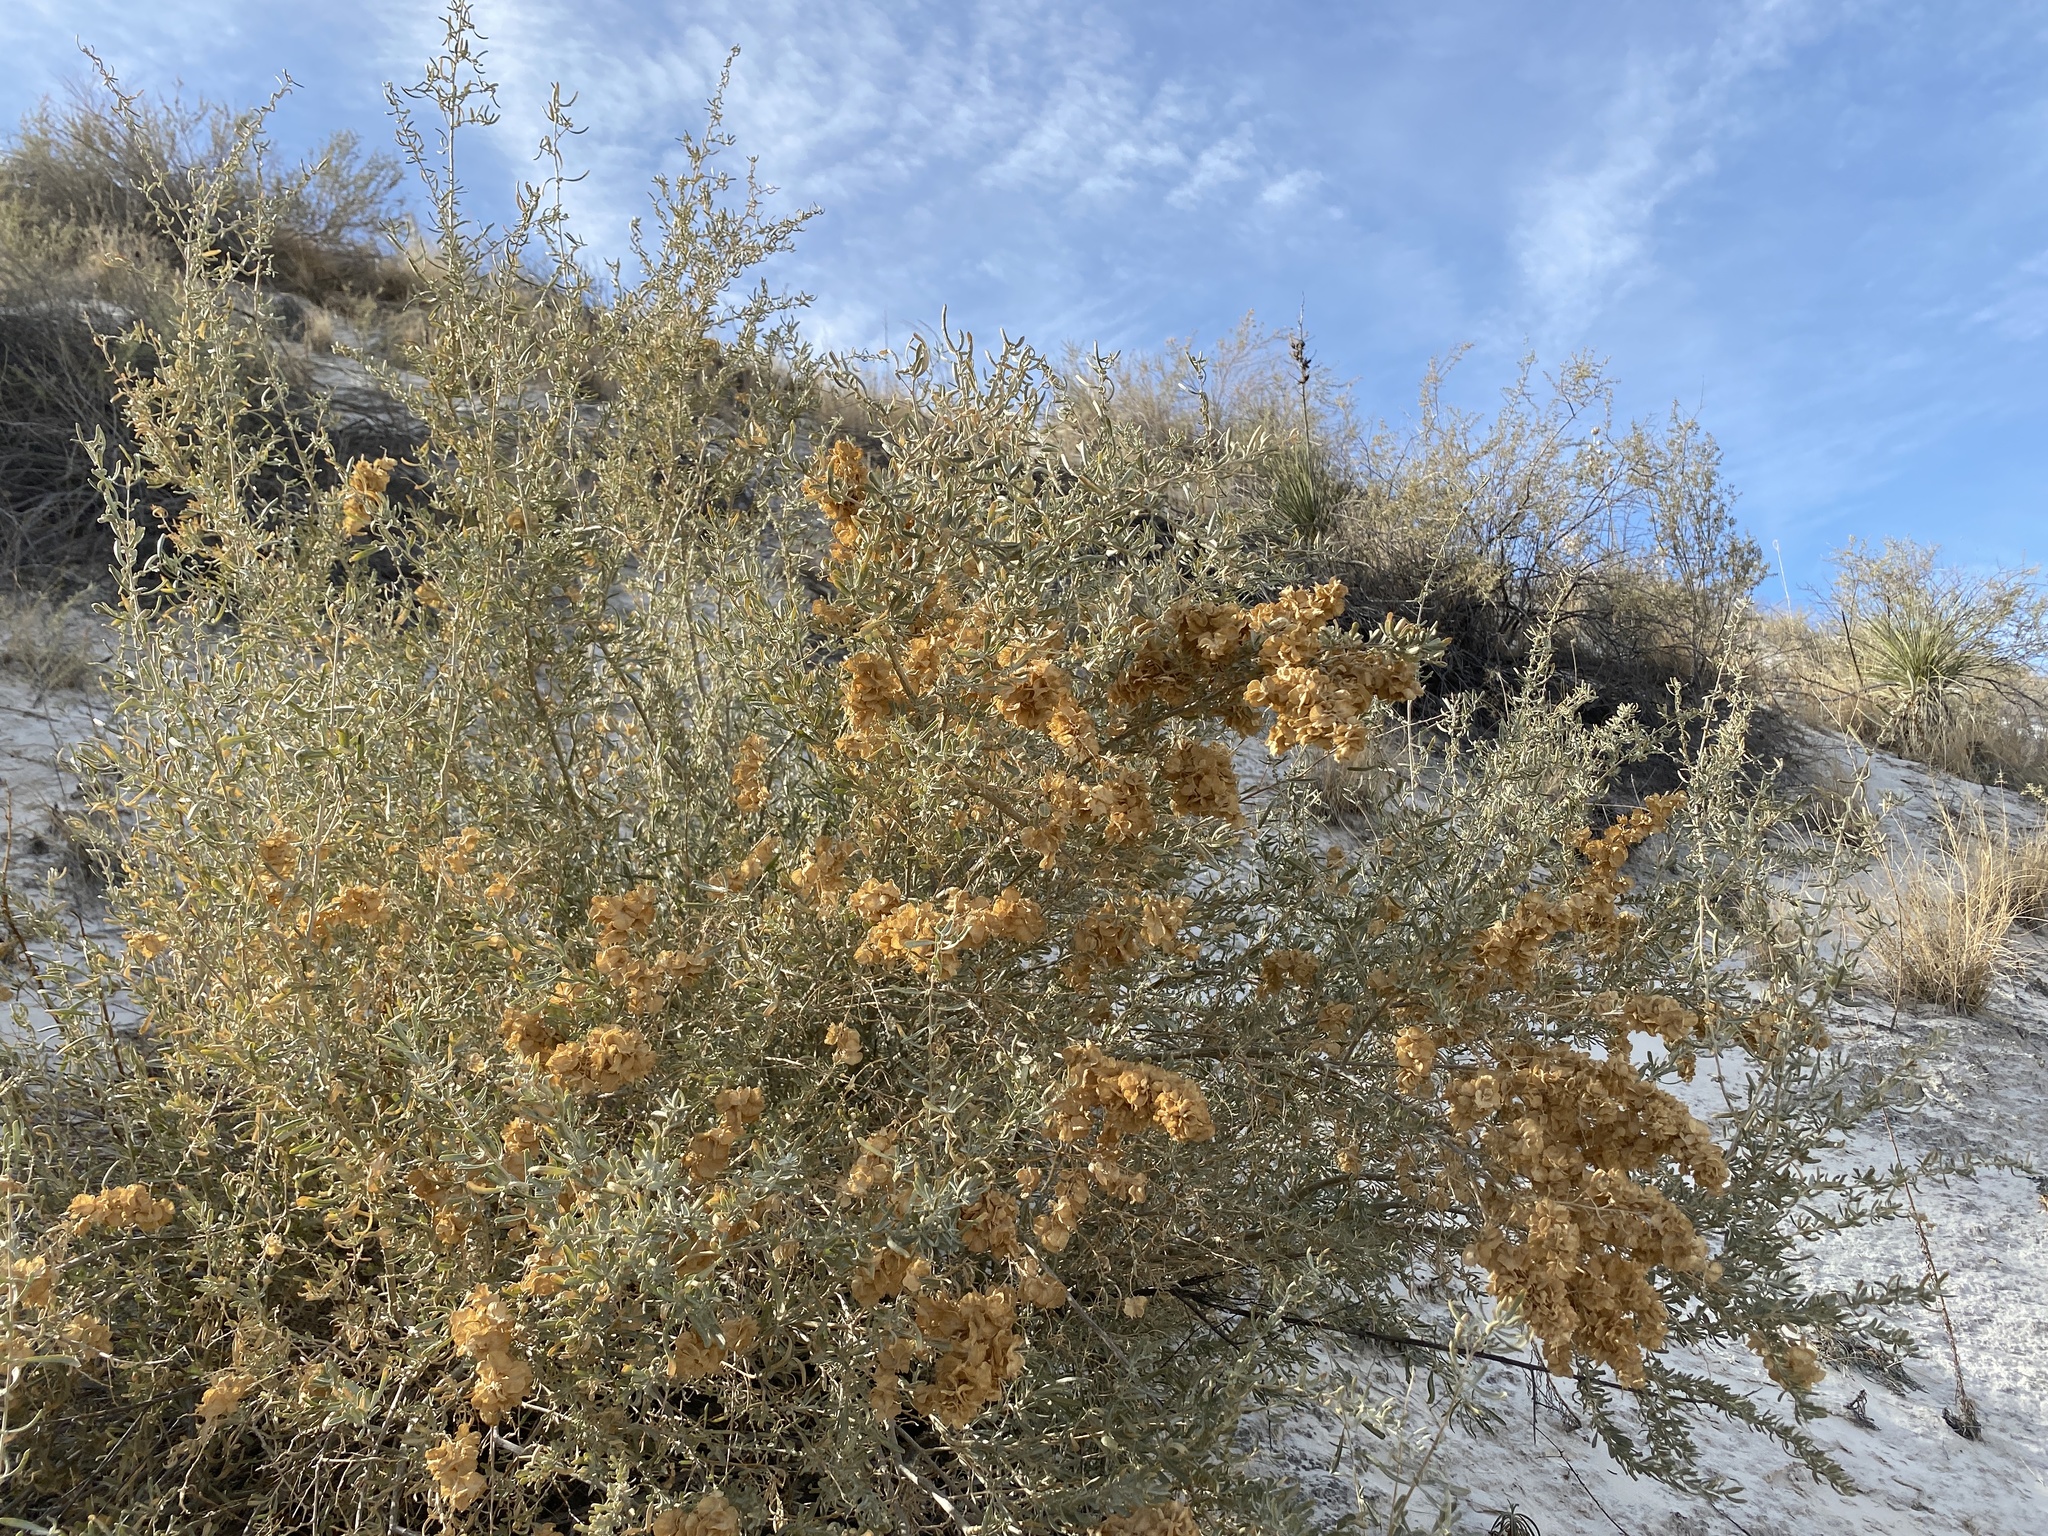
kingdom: Plantae
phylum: Tracheophyta
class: Magnoliopsida
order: Caryophyllales
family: Amaranthaceae
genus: Atriplex
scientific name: Atriplex canescens
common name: Four-wing saltbush
